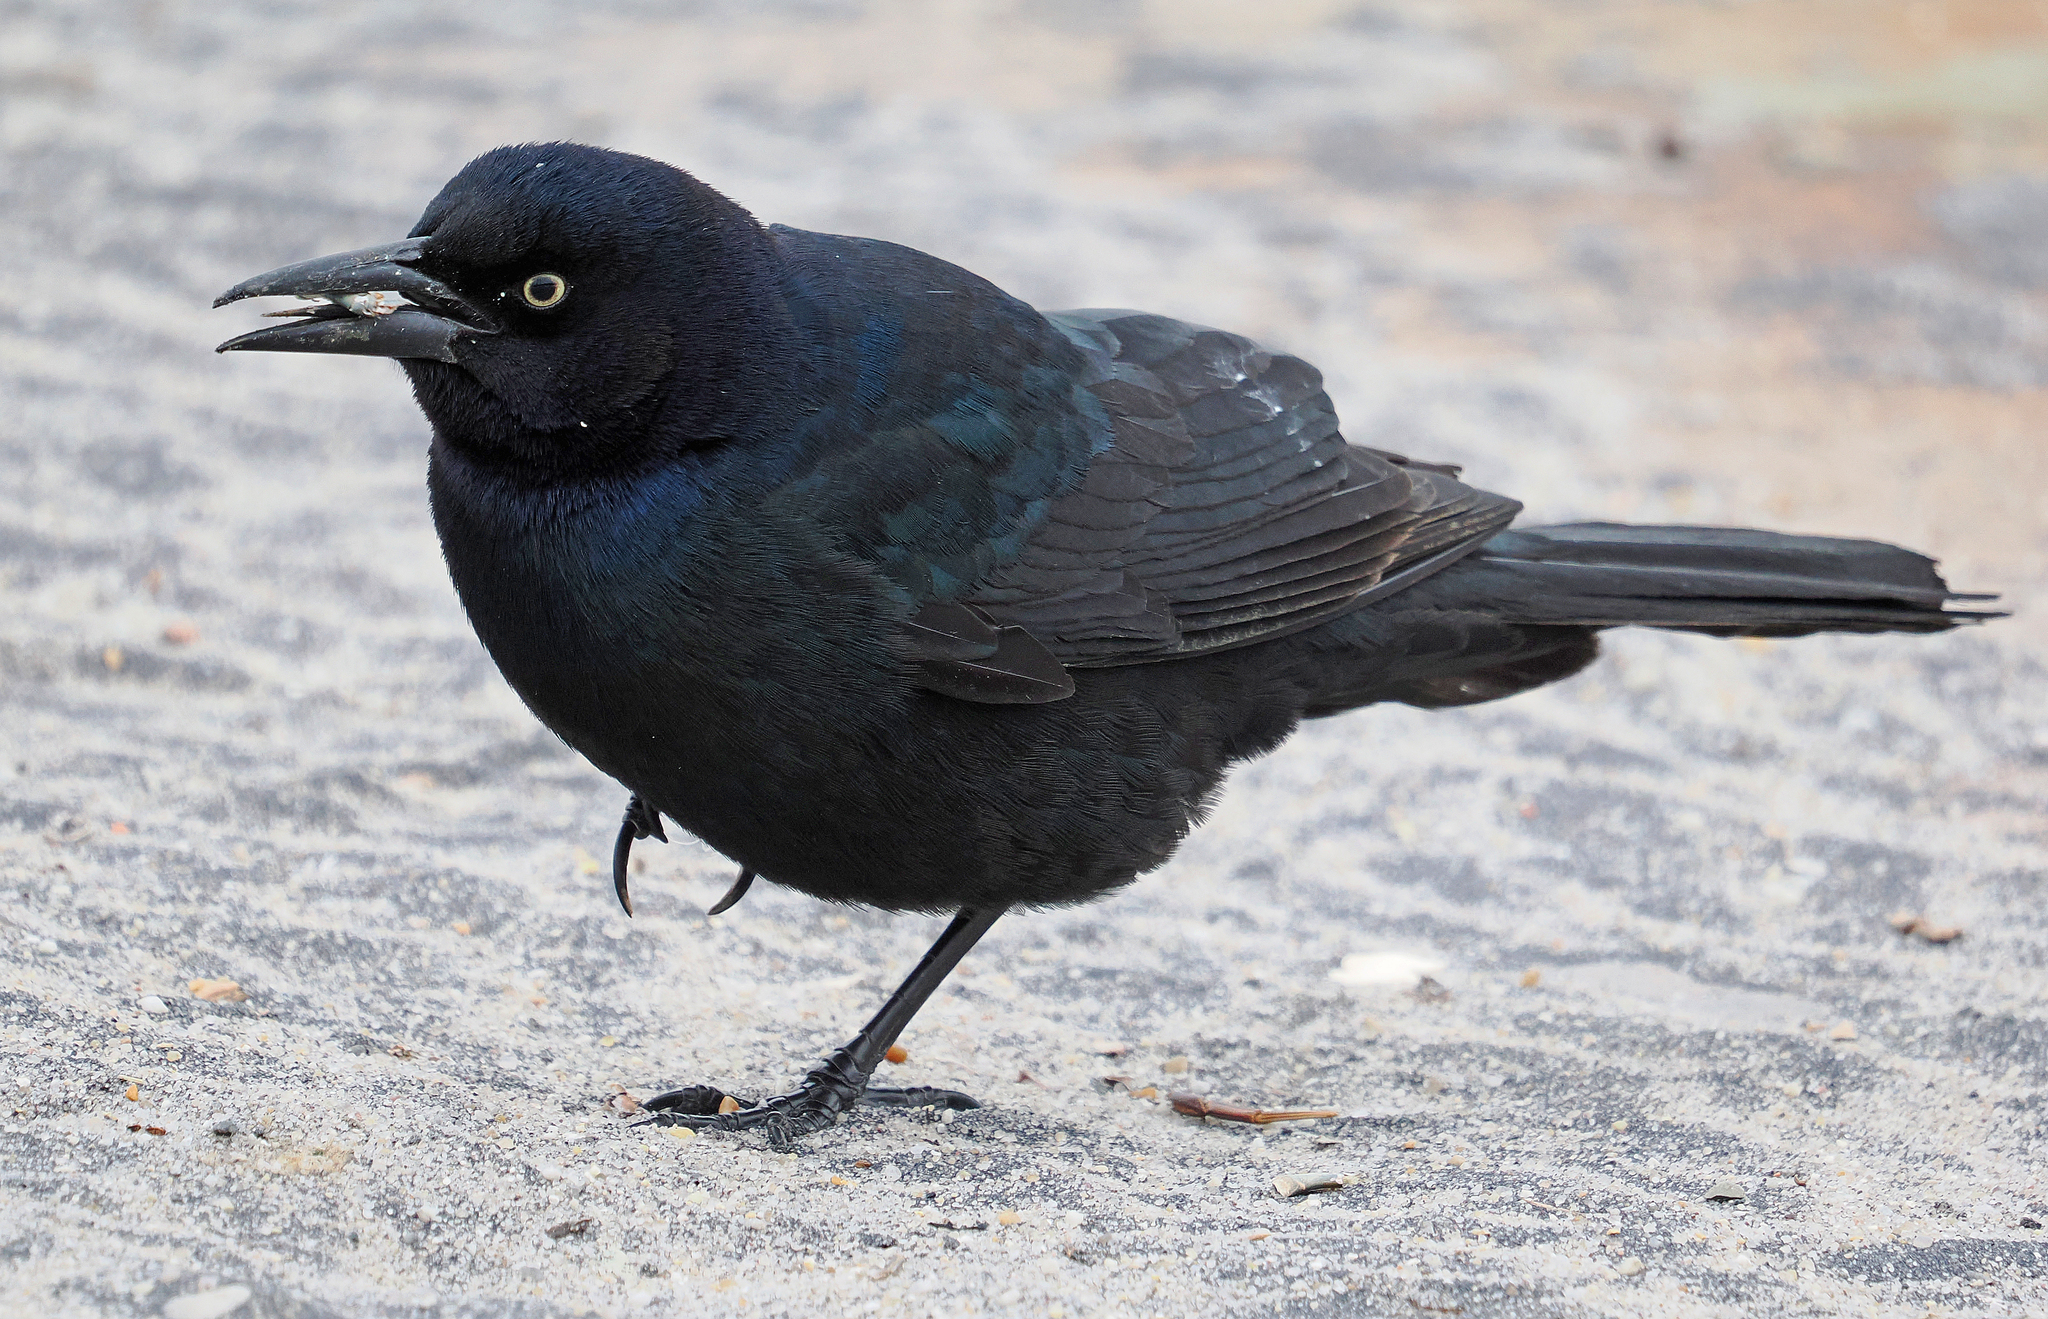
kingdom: Animalia
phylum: Chordata
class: Aves
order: Passeriformes
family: Icteridae
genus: Quiscalus
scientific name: Quiscalus major
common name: Boat-tailed grackle
